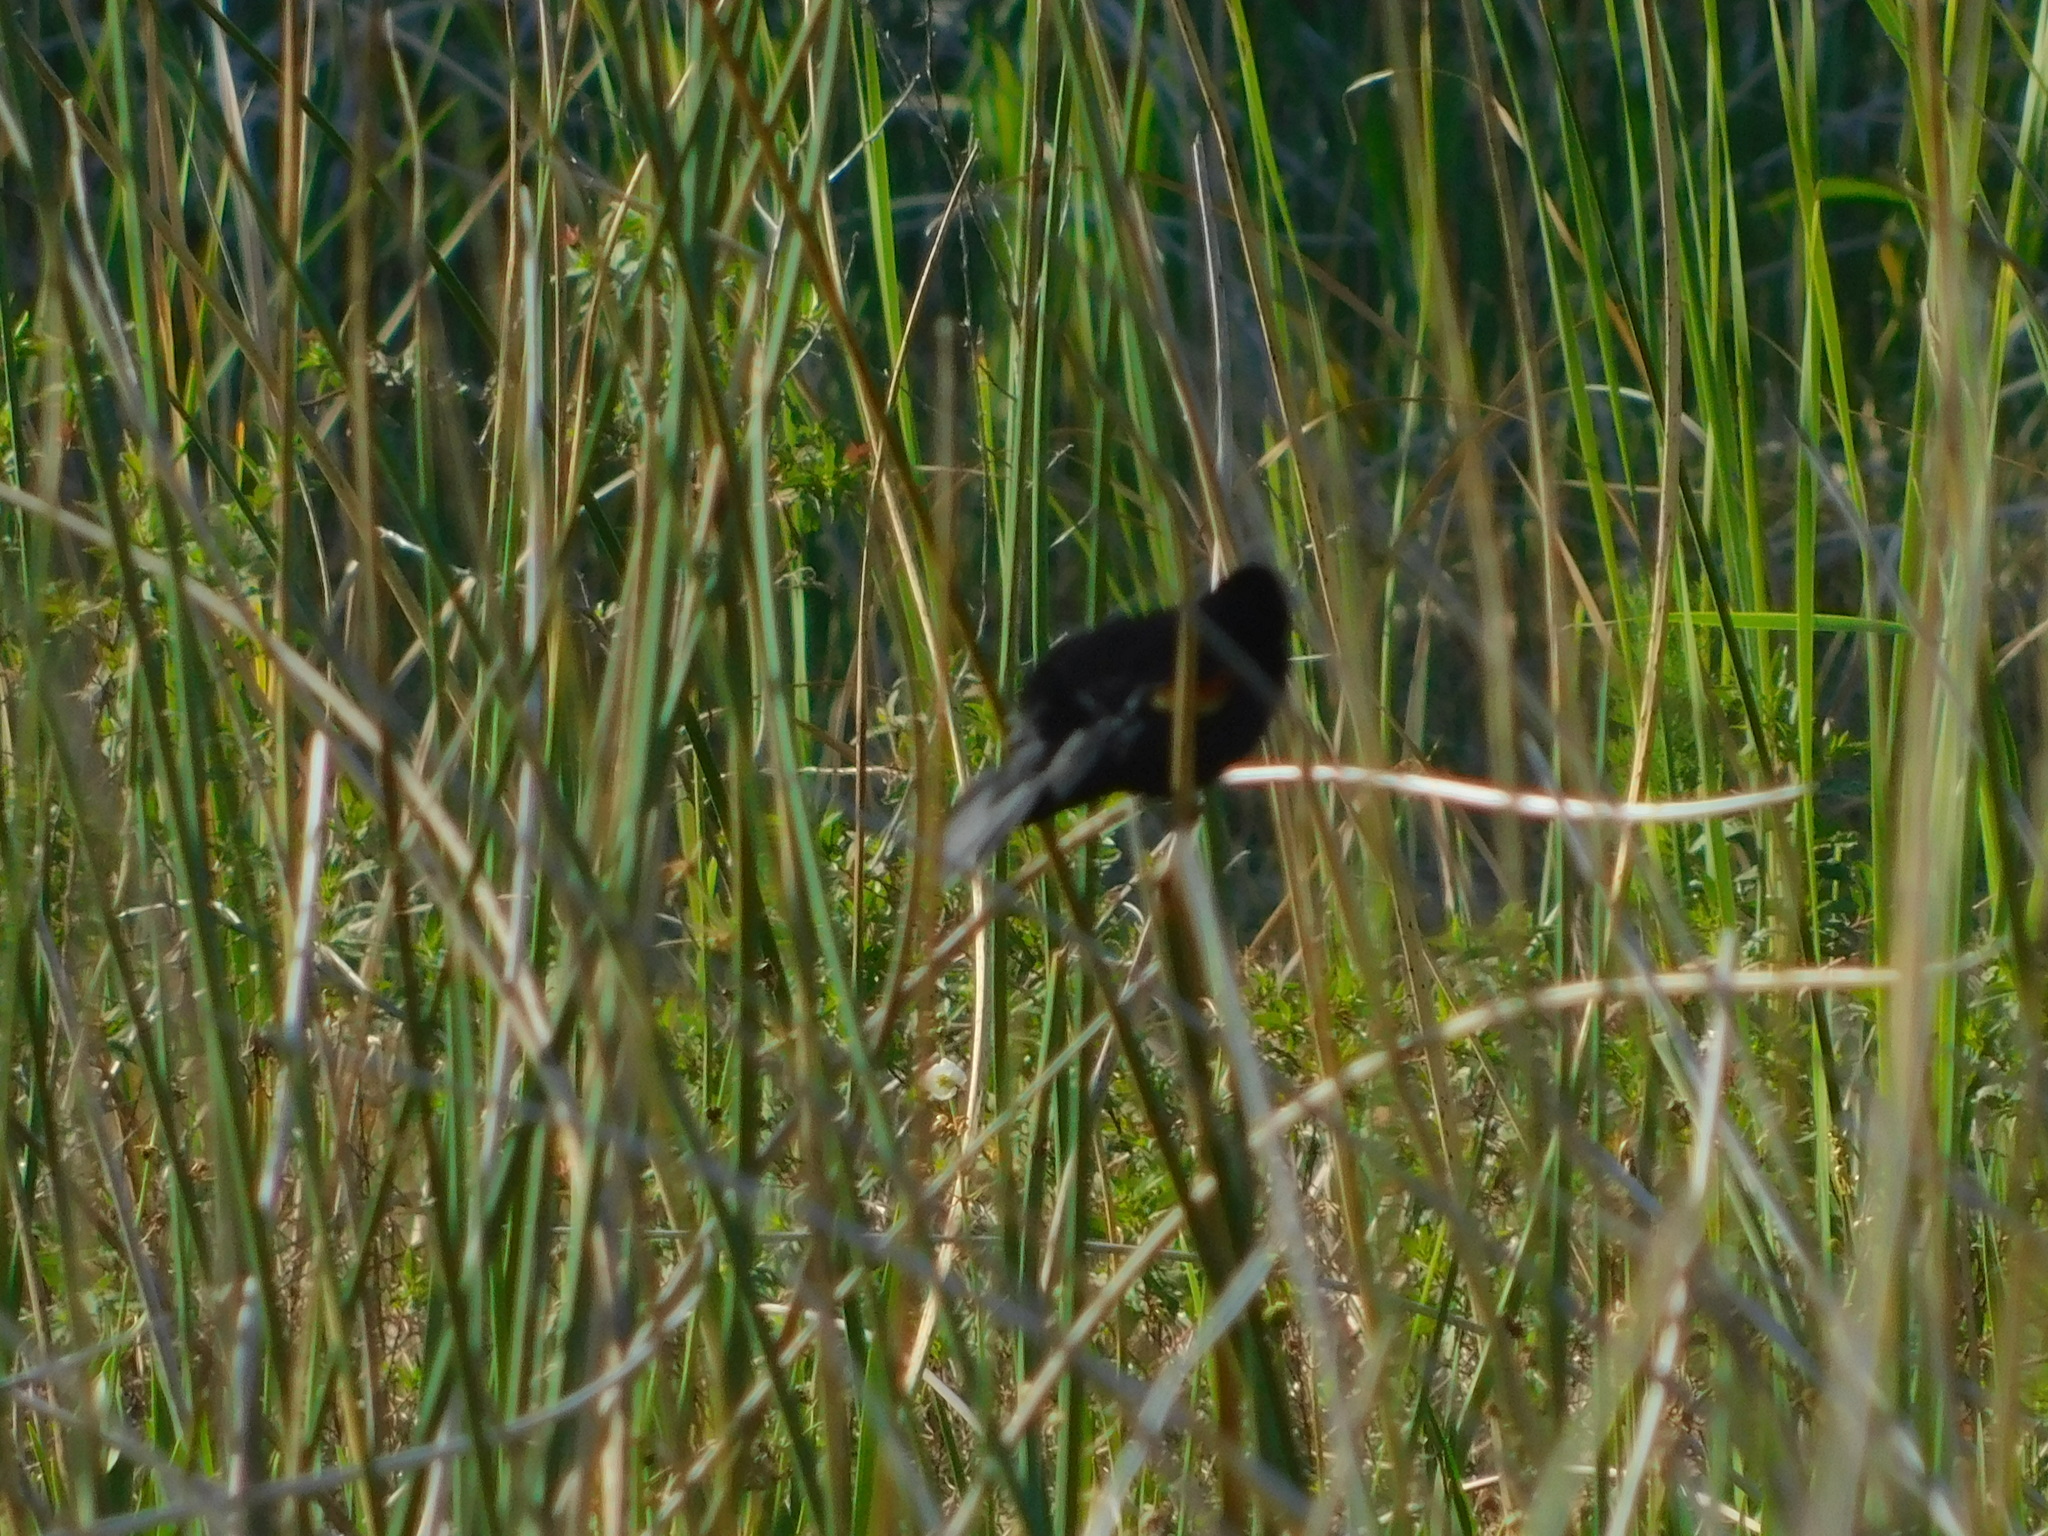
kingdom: Animalia
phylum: Chordata
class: Aves
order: Passeriformes
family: Icteridae
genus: Agelaius
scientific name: Agelaius phoeniceus
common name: Red-winged blackbird
